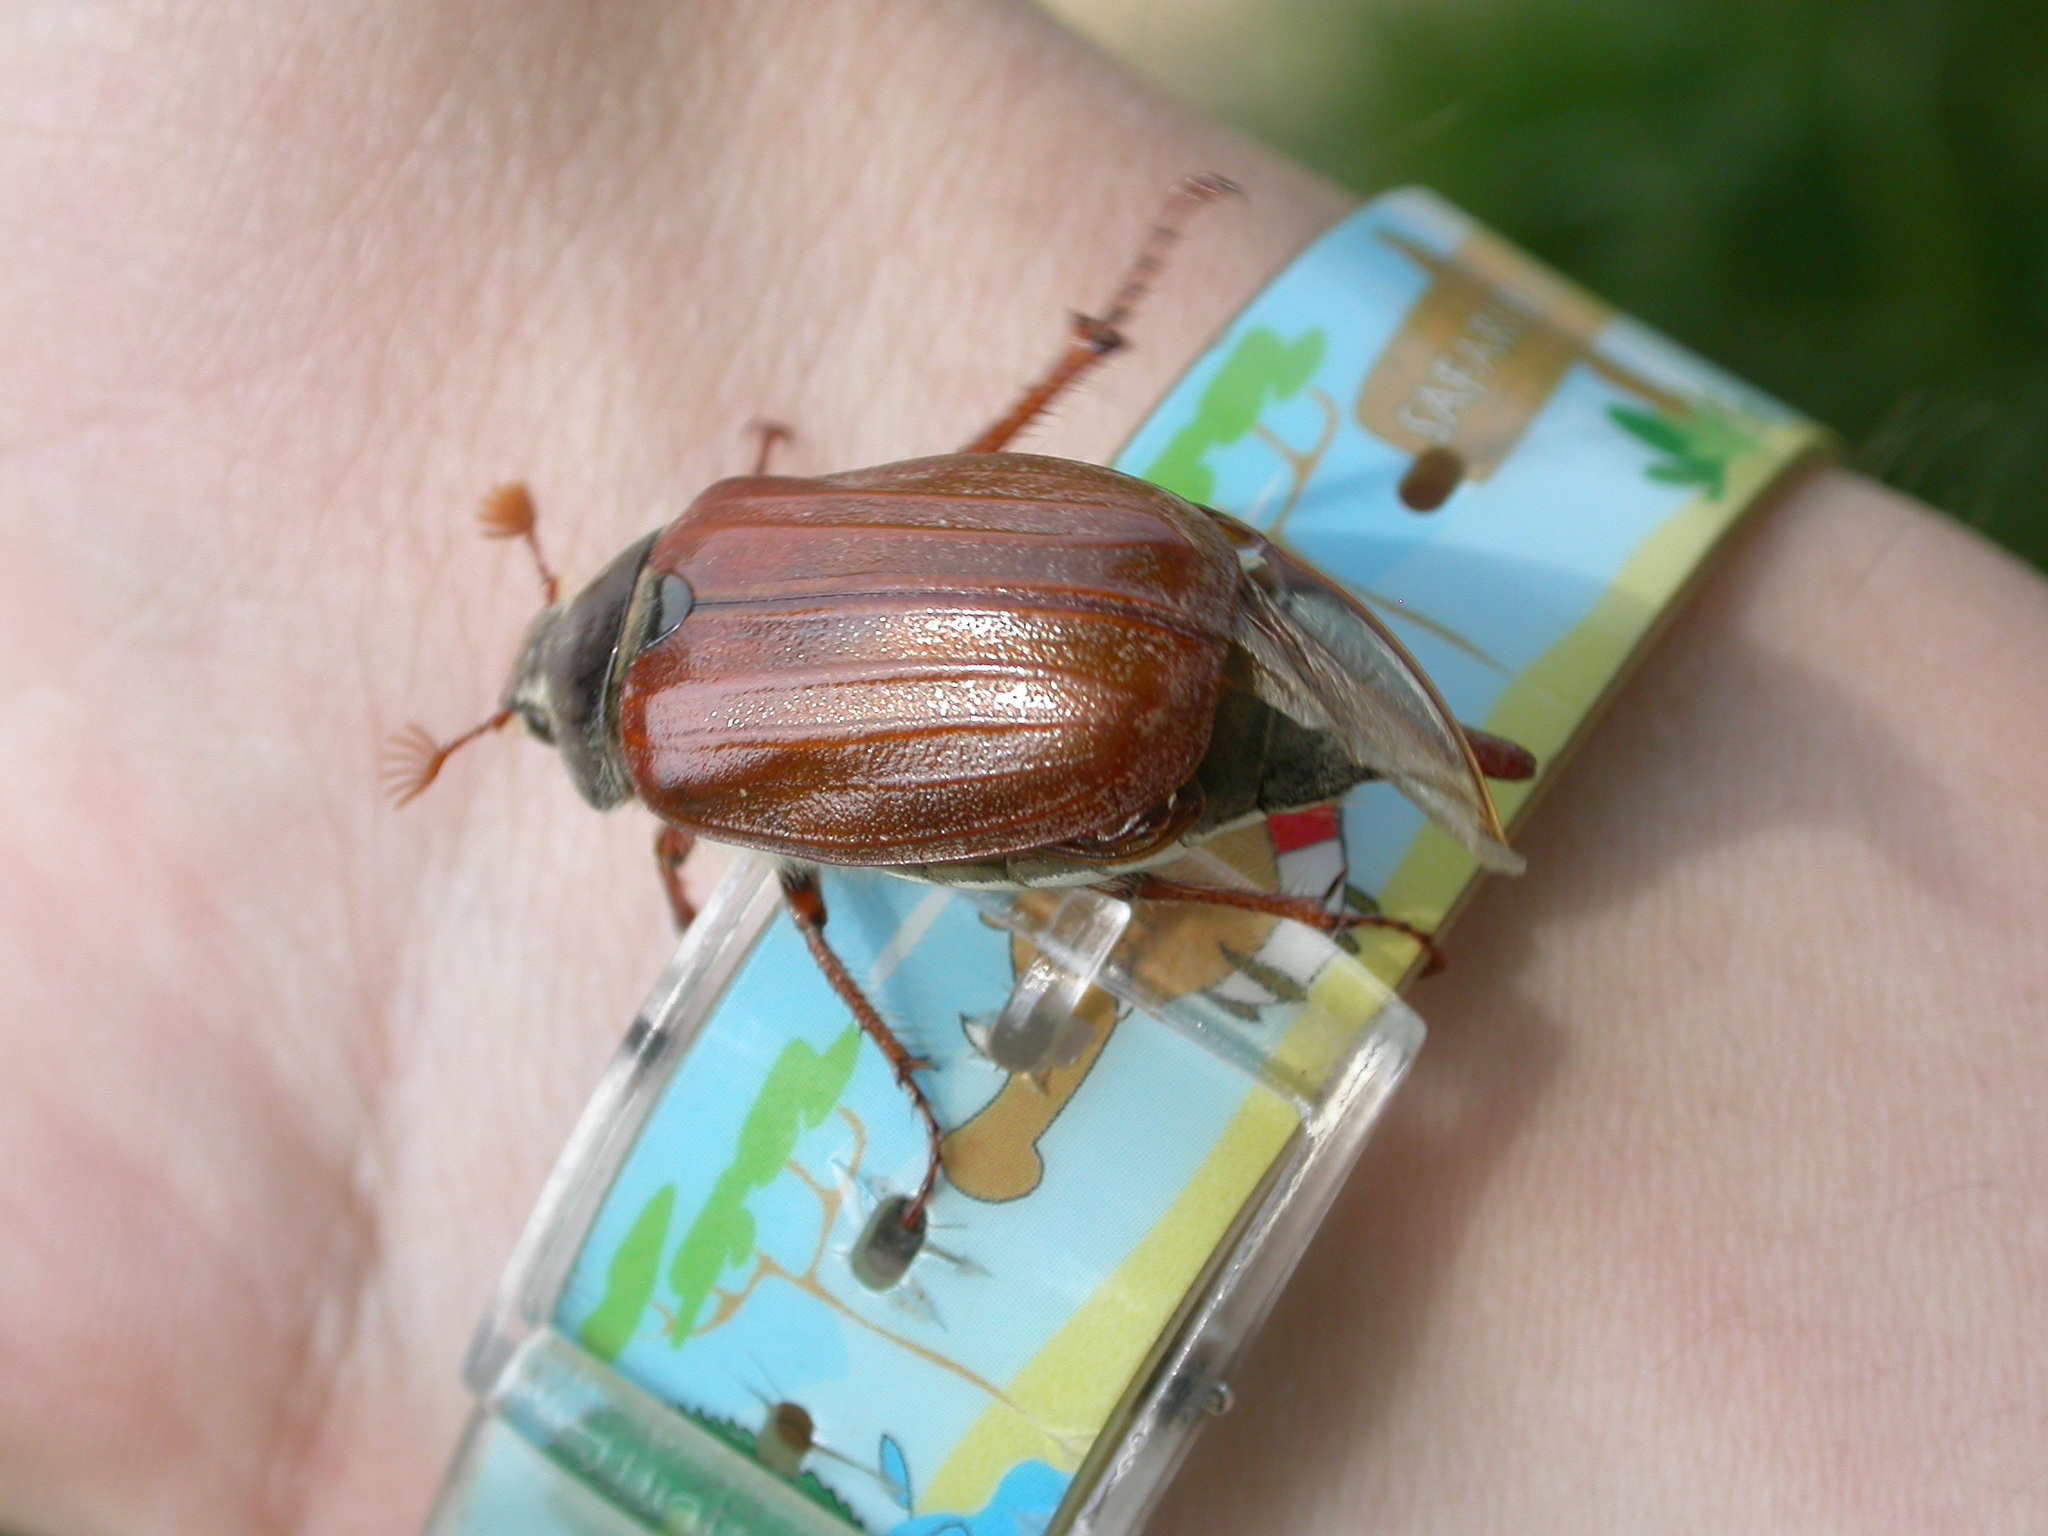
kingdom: Animalia
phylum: Arthropoda
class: Insecta
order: Coleoptera
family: Scarabaeidae
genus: Melolontha
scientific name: Melolontha melolontha
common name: Cockchafer maybeetle
